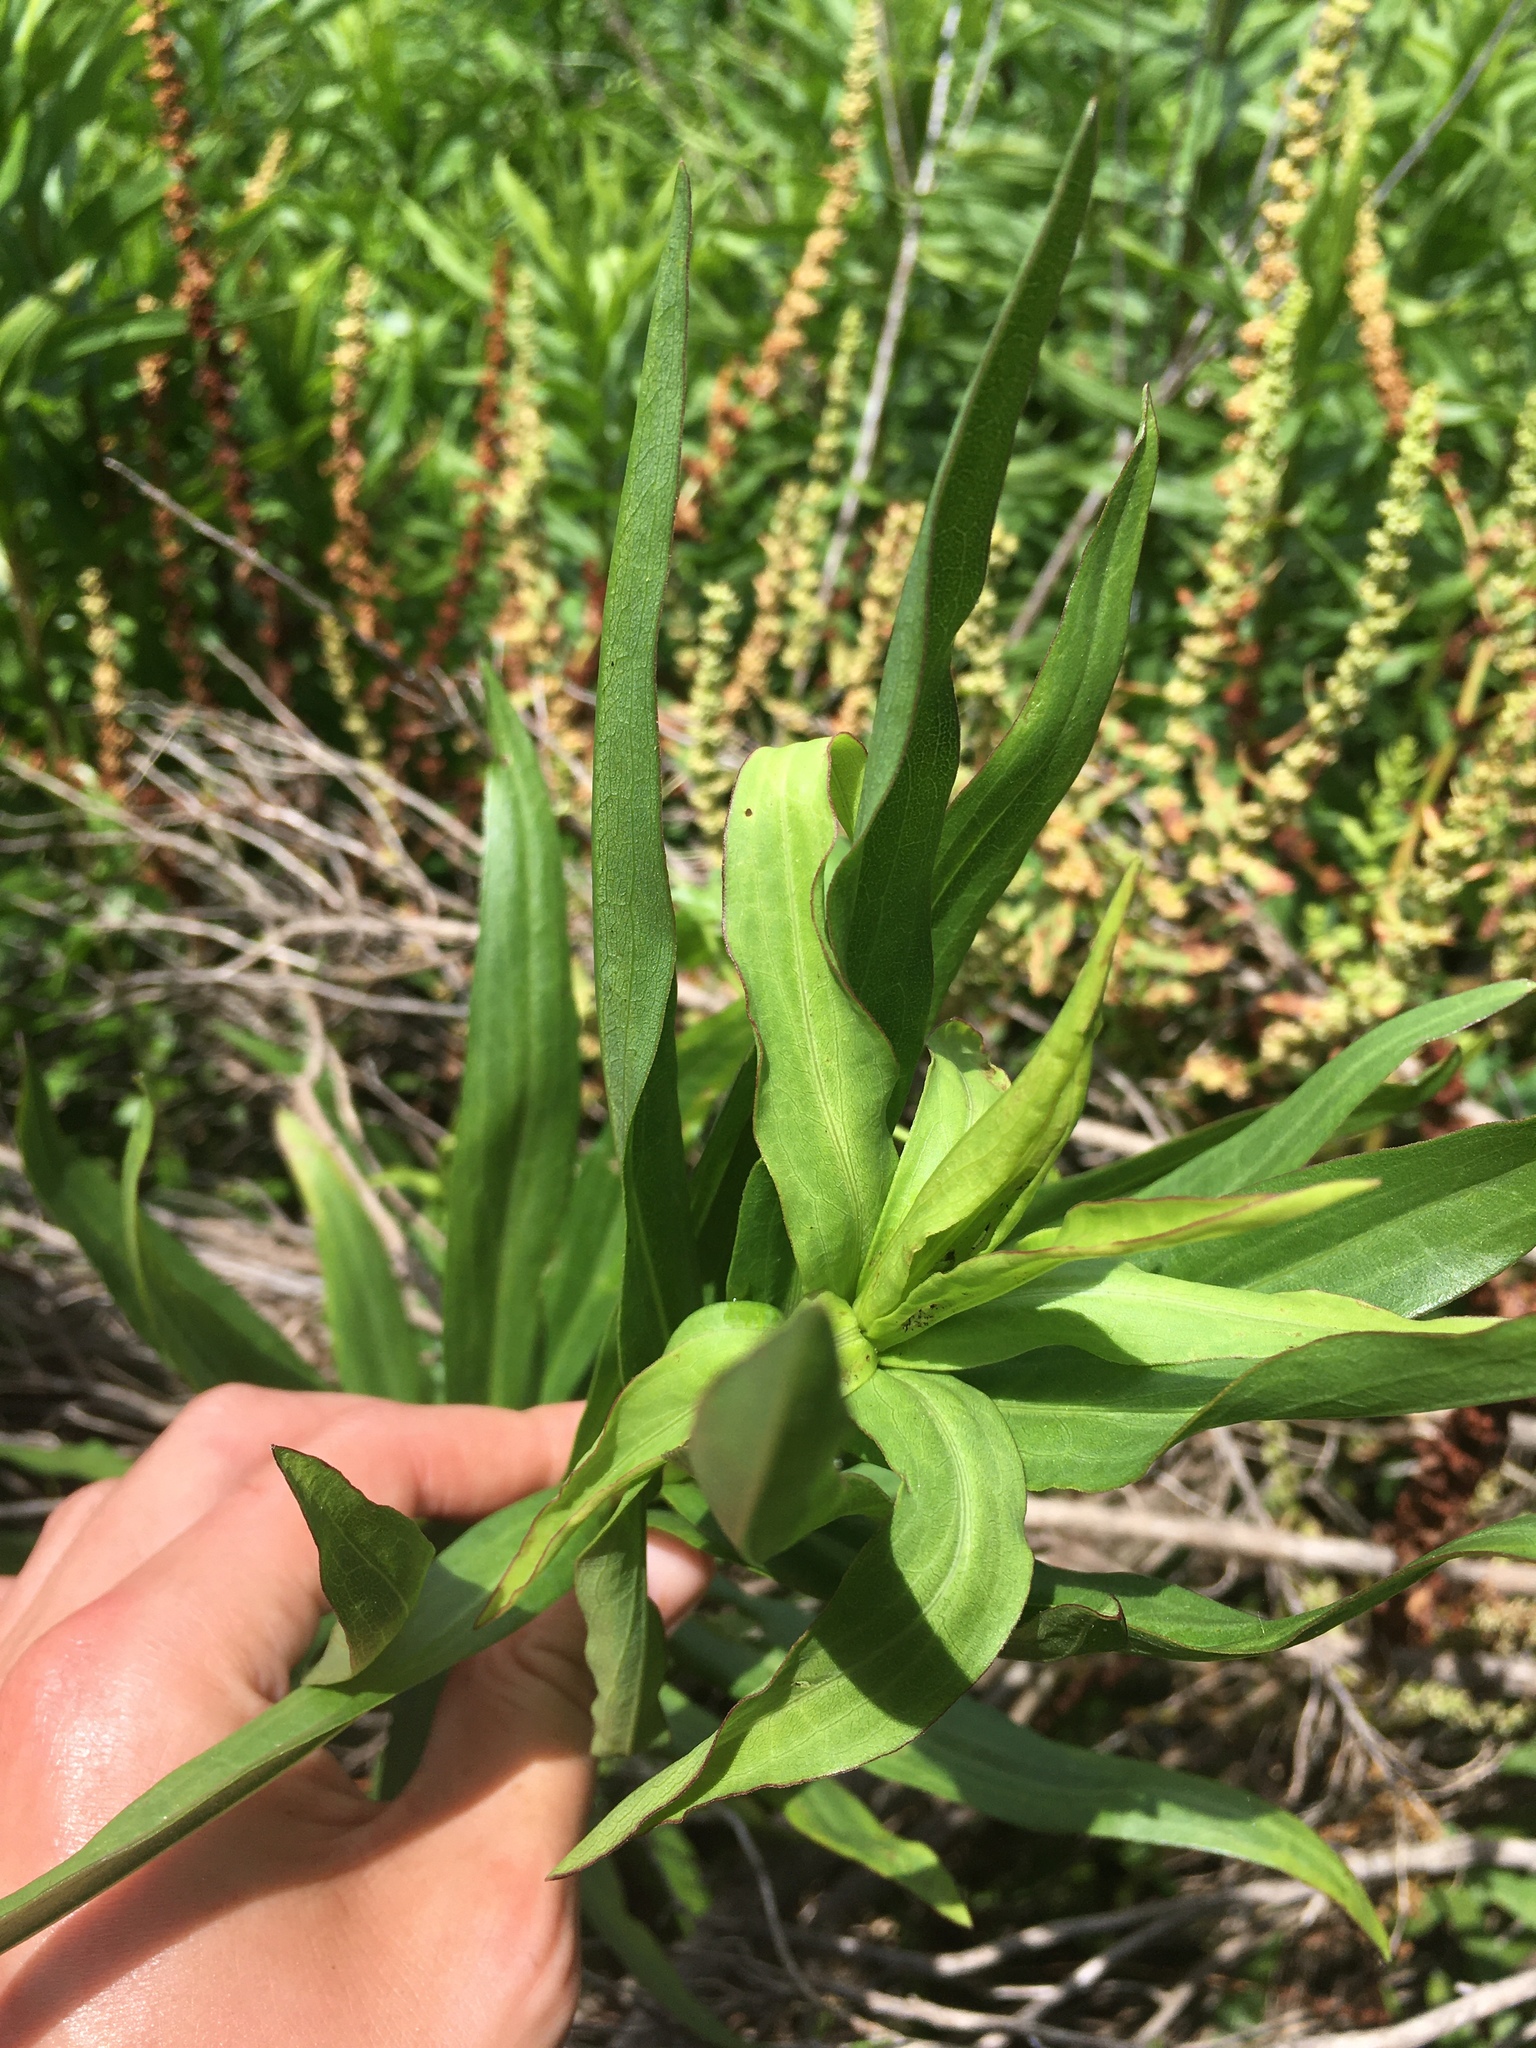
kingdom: Plantae
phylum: Tracheophyta
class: Magnoliopsida
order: Asterales
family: Asteraceae
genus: Solidago
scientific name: Solidago mexicana
